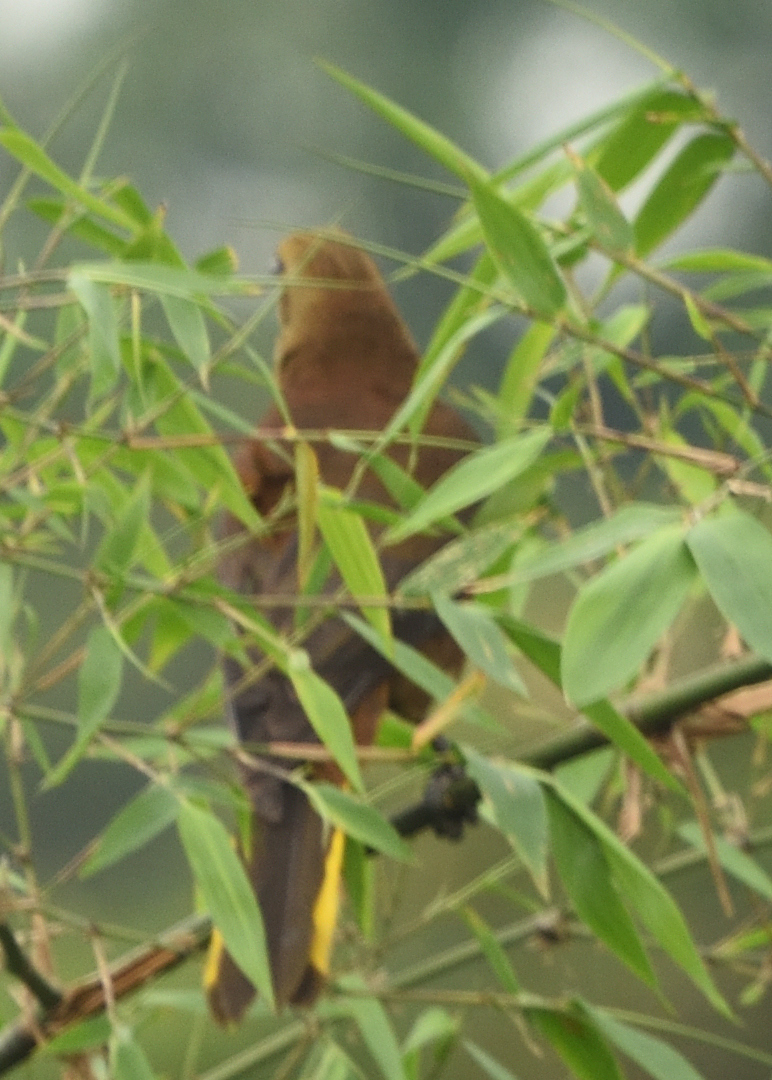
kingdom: Animalia
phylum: Chordata
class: Aves
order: Passeriformes
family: Icteridae
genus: Psarocolius
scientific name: Psarocolius angustifrons
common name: Russet-backed oropendola
